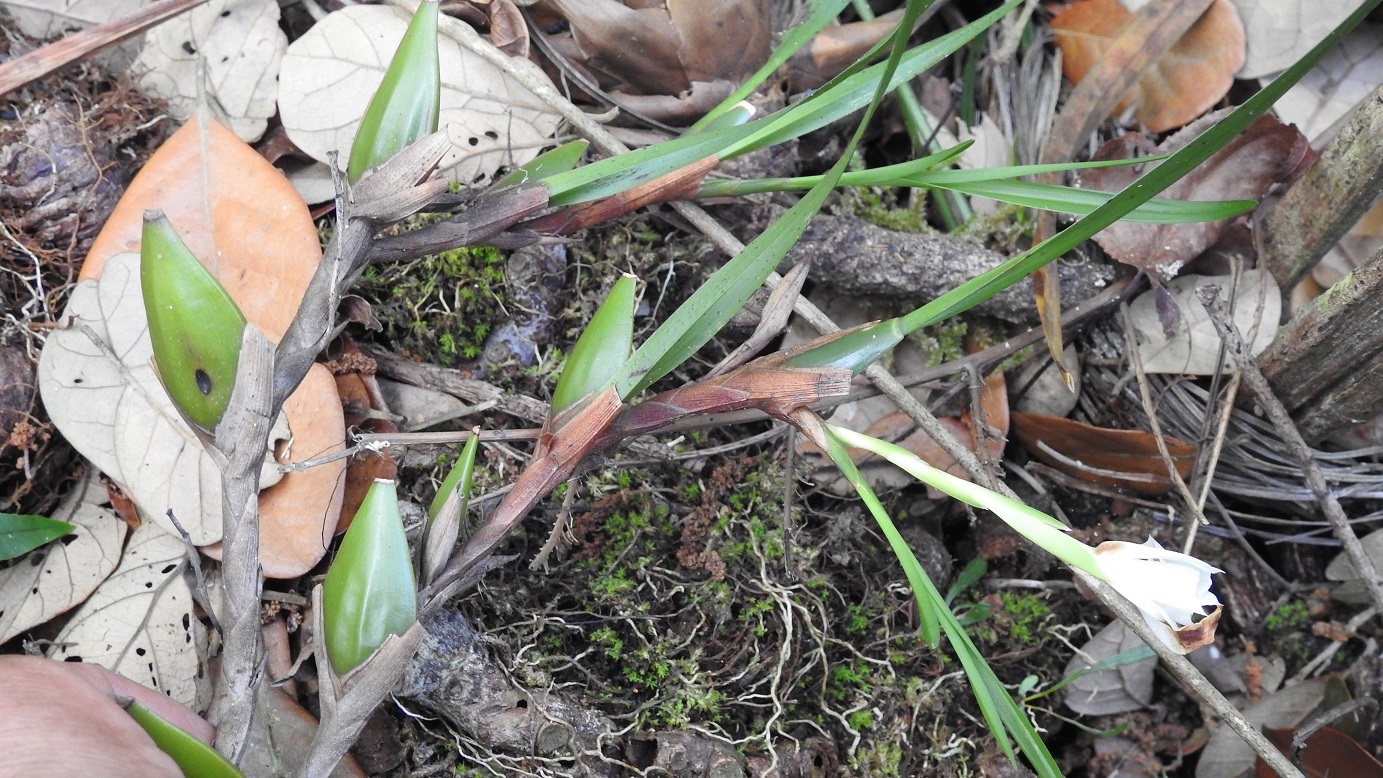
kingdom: Plantae
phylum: Tracheophyta
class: Liliopsida
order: Asparagales
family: Orchidaceae
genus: Maxillaria
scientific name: Maxillaria alba
